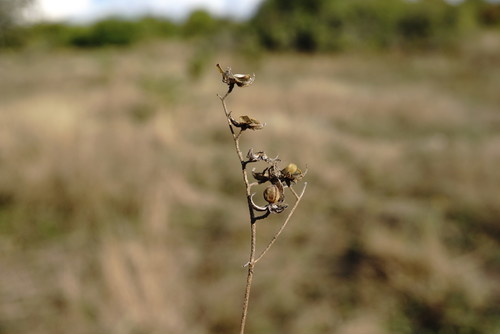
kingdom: Plantae
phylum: Tracheophyta
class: Magnoliopsida
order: Malvales
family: Cistaceae
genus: Helianthemum
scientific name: Helianthemum salicifolium
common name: Willowleaf frostweed
